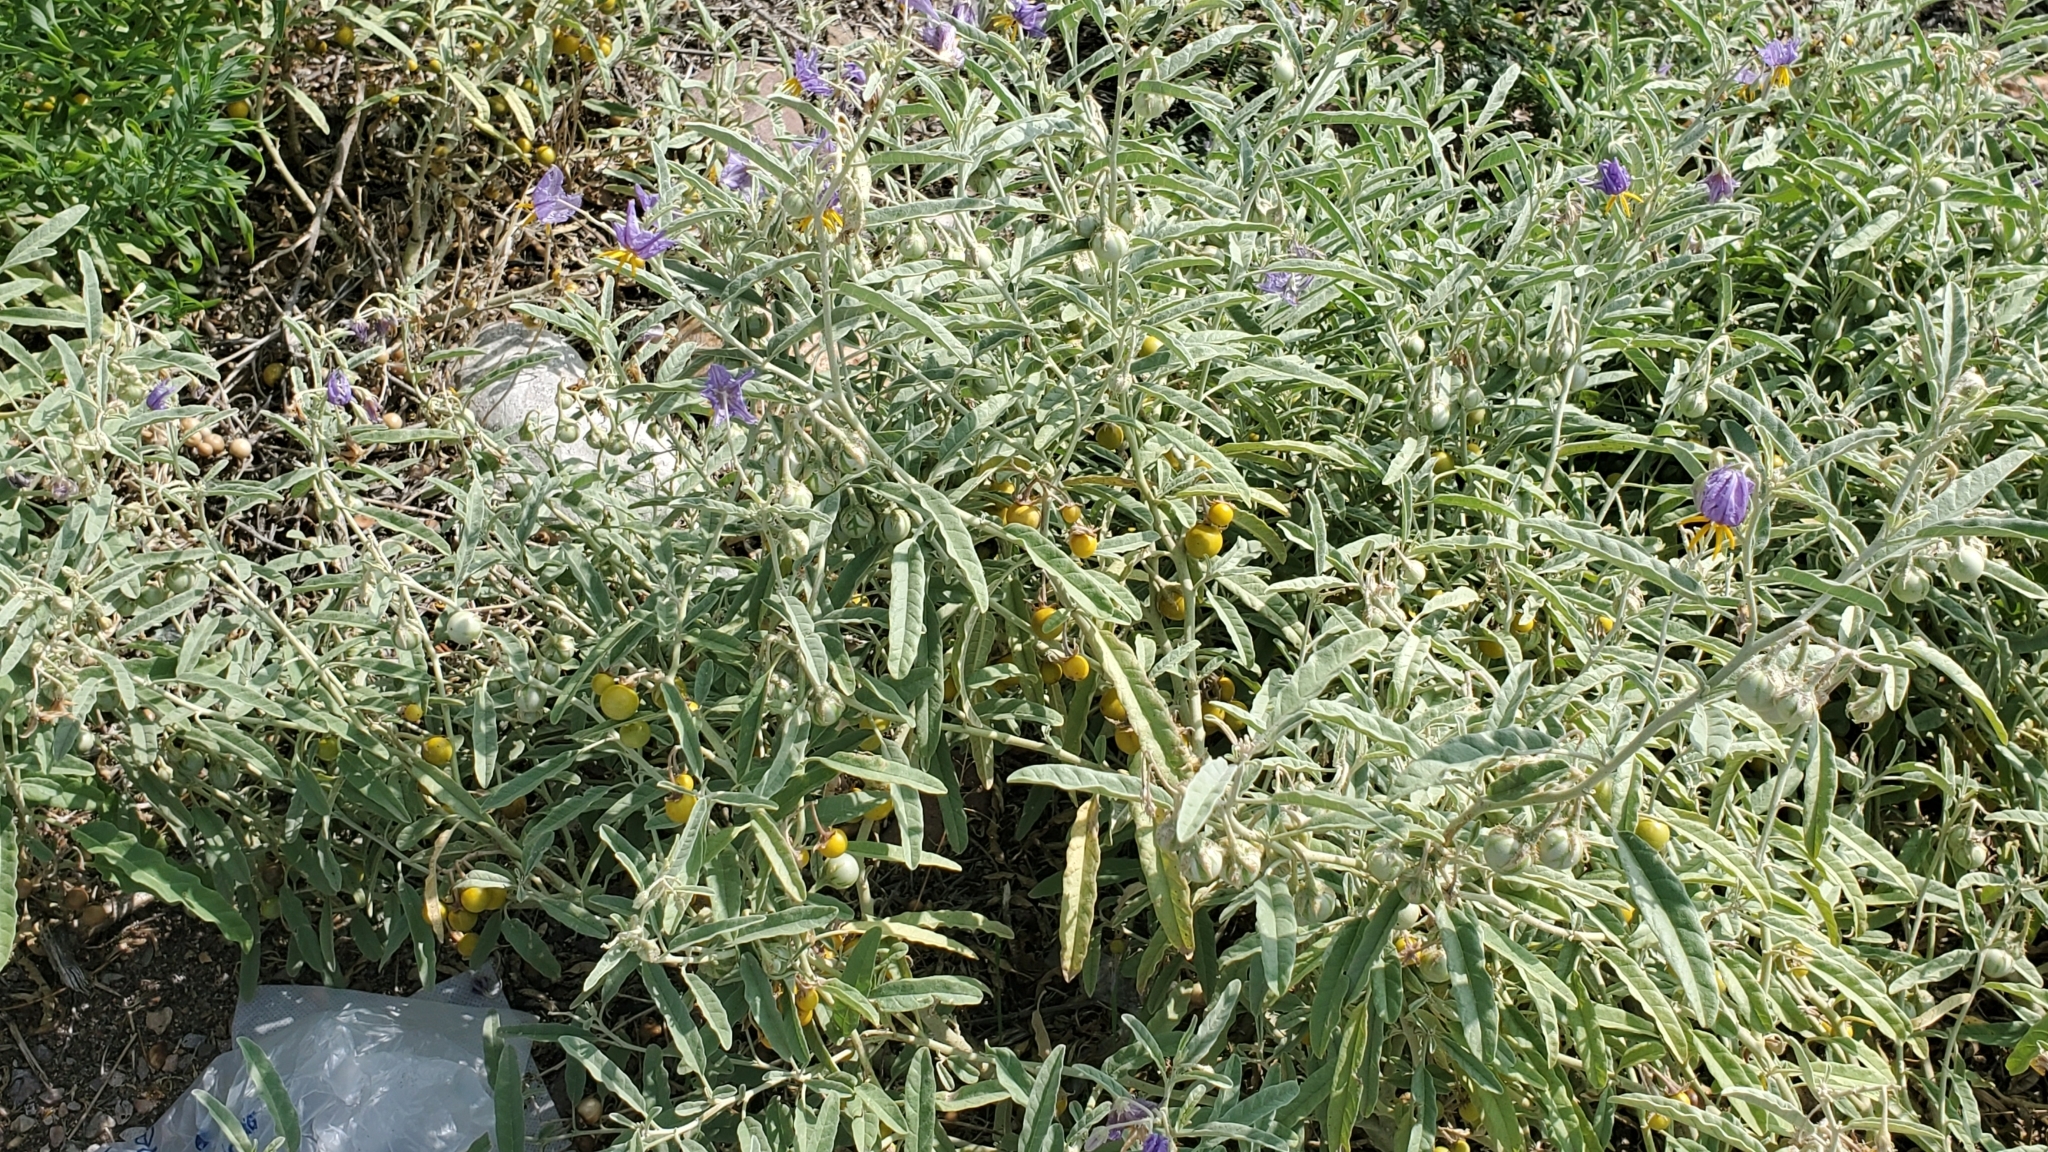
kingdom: Plantae
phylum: Tracheophyta
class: Magnoliopsida
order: Solanales
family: Solanaceae
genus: Solanum
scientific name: Solanum elaeagnifolium
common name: Silverleaf nightshade
